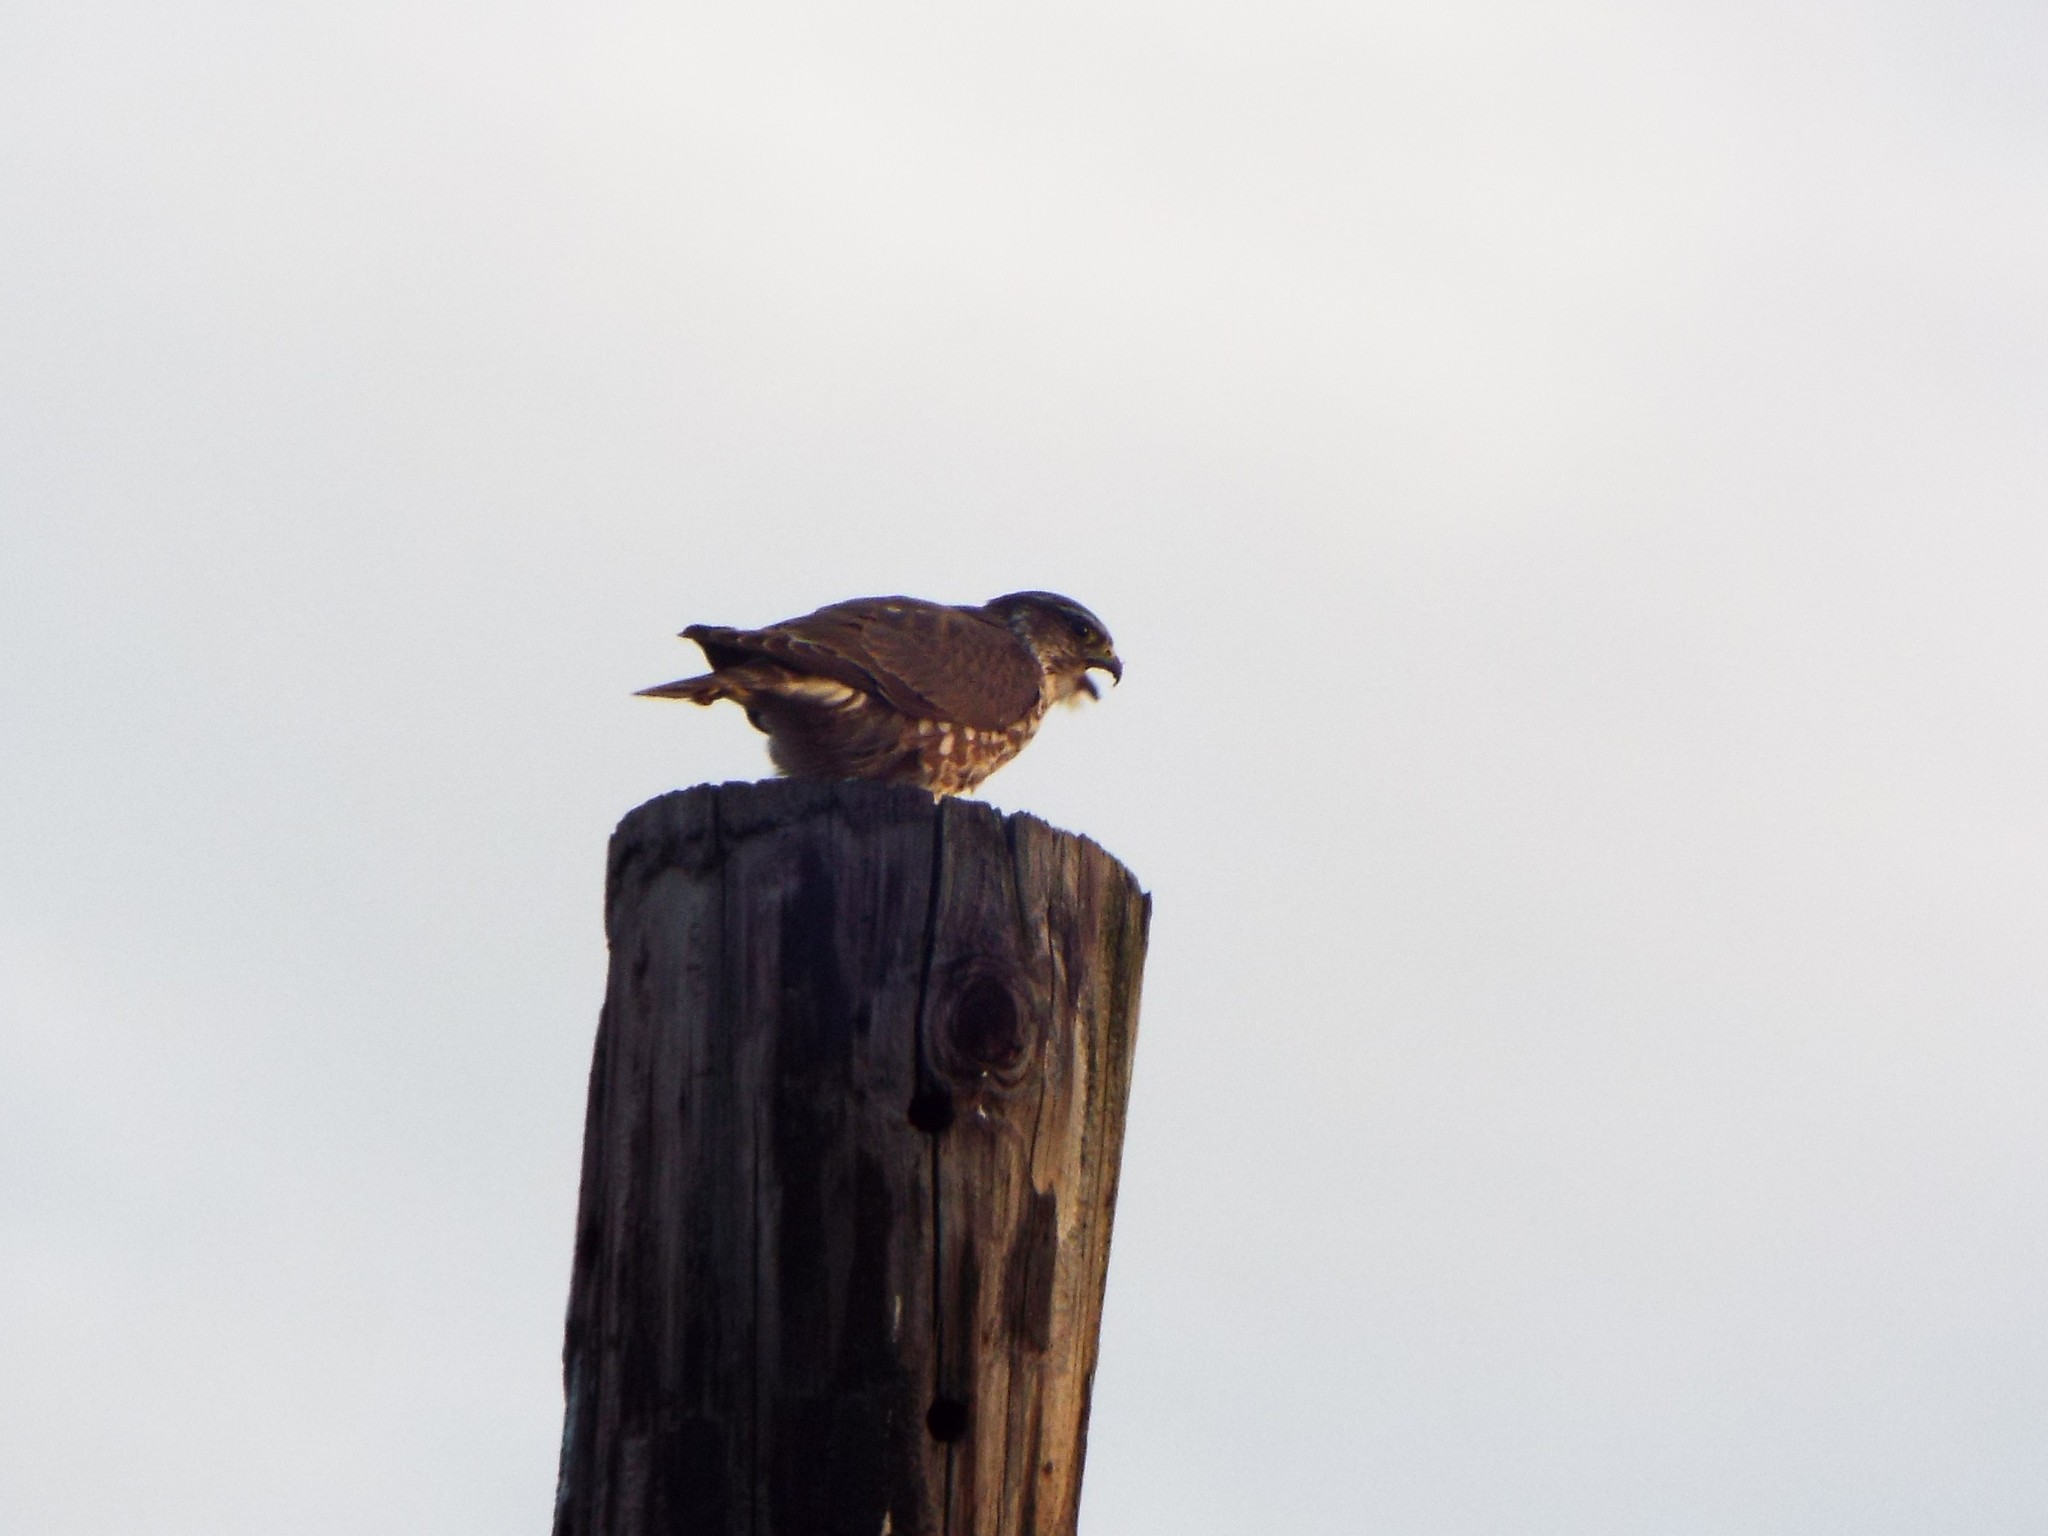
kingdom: Animalia
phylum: Chordata
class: Aves
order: Falconiformes
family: Falconidae
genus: Falco
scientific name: Falco columbarius
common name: Merlin
